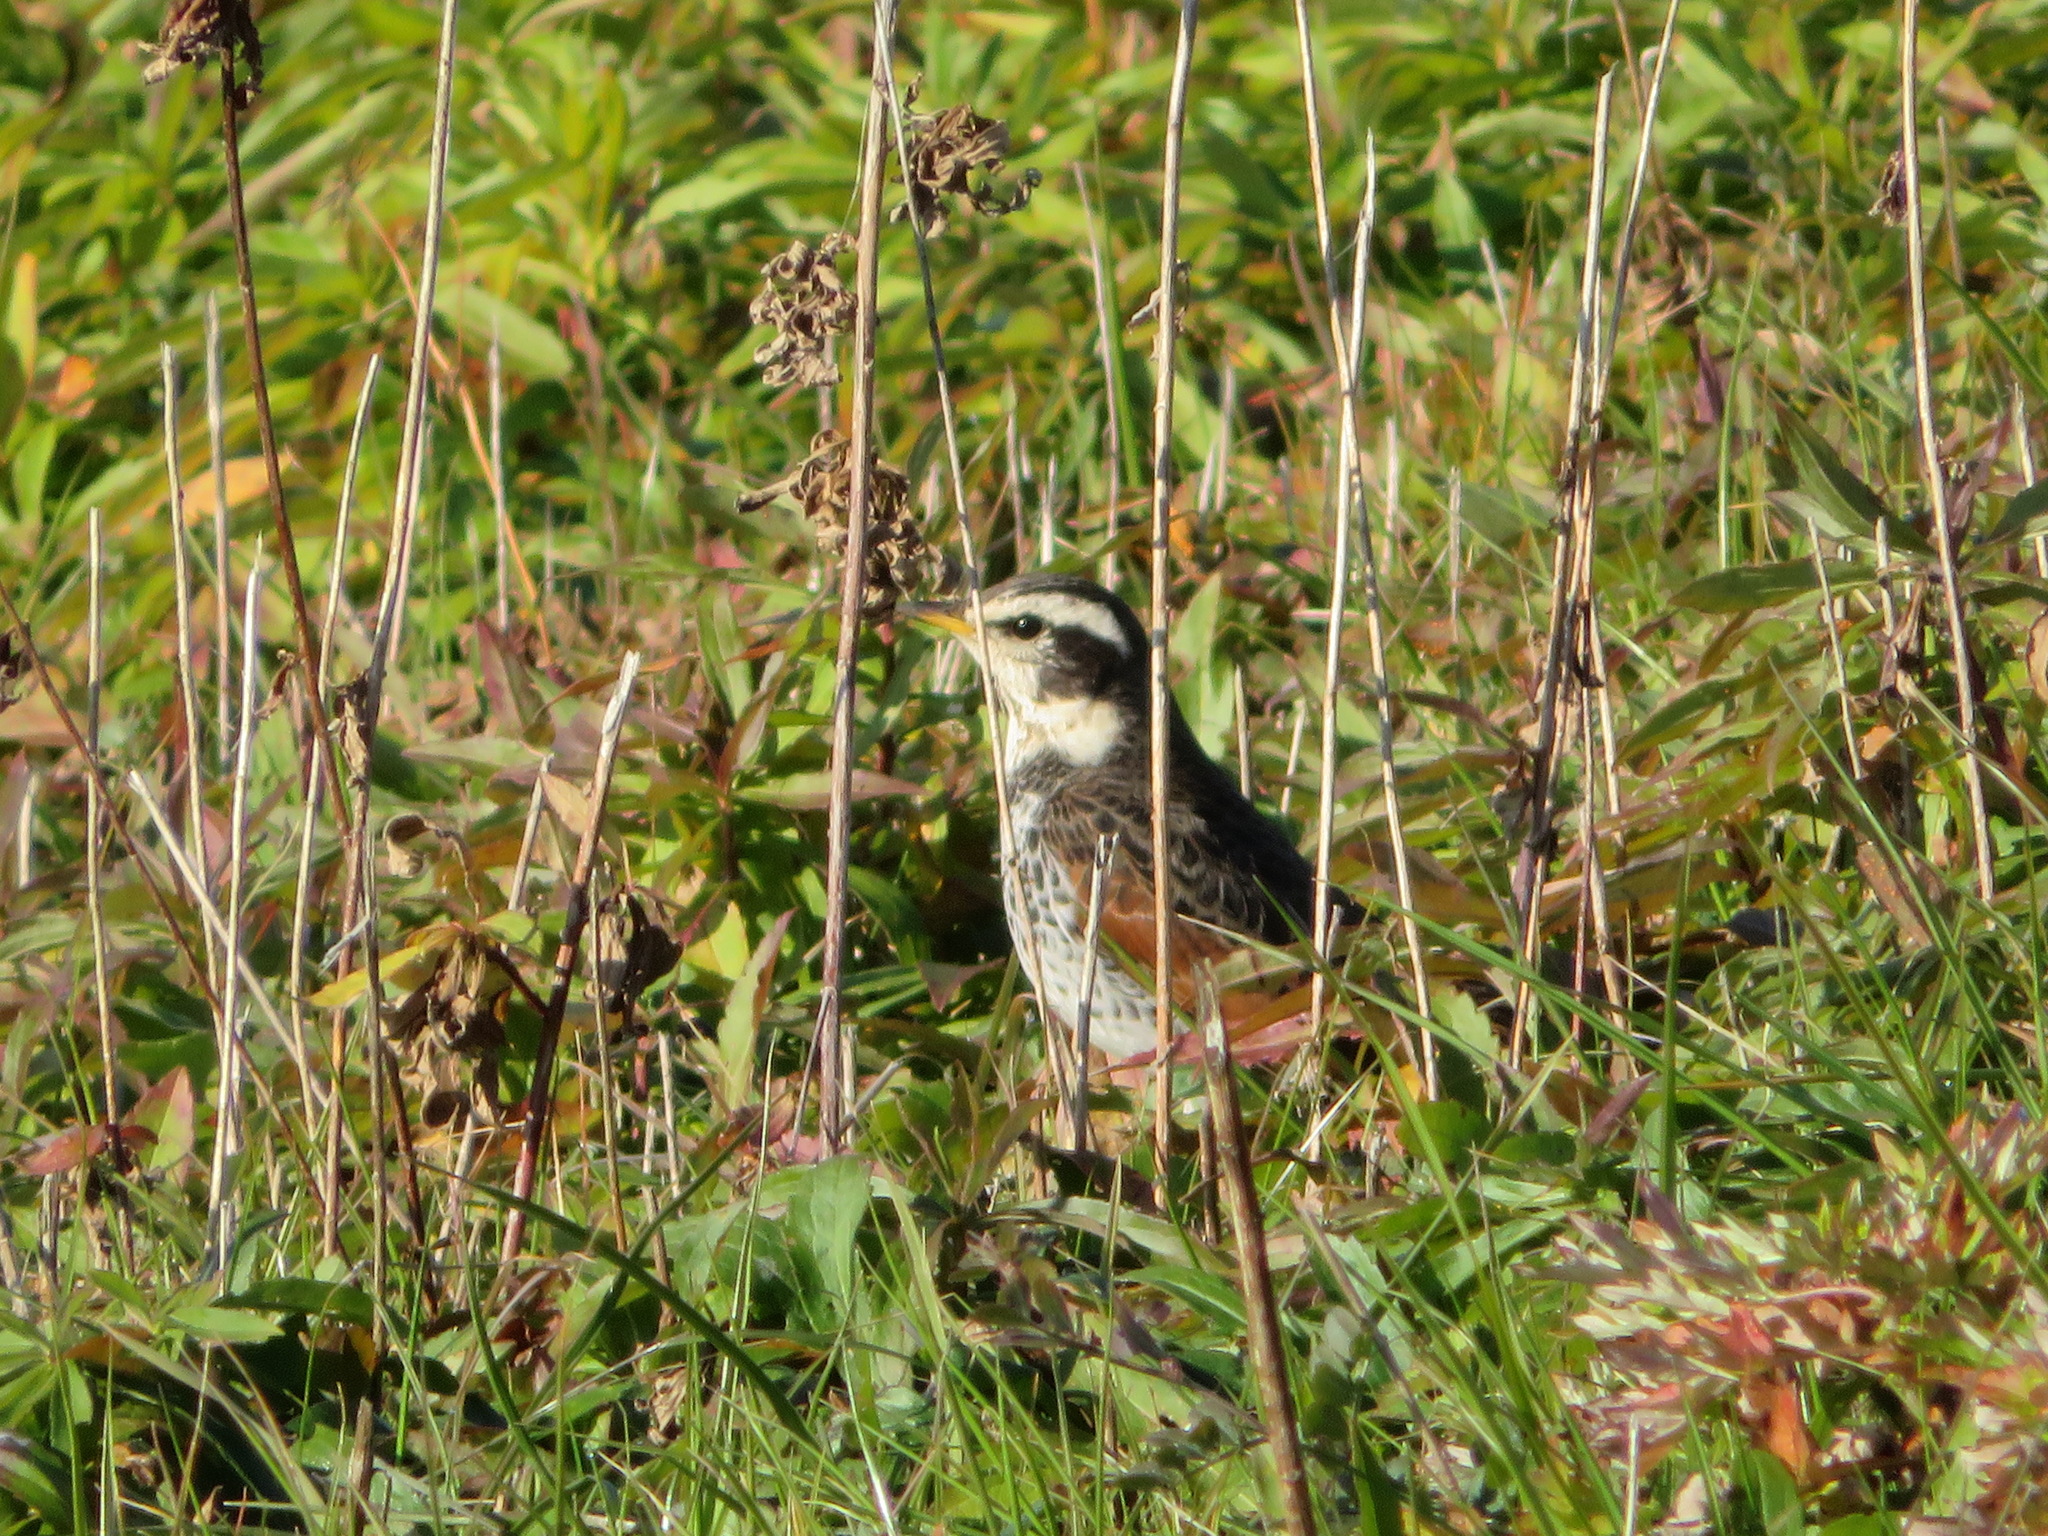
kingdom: Animalia
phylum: Chordata
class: Aves
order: Passeriformes
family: Turdidae
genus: Turdus
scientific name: Turdus eunomus
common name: Dusky thrush
